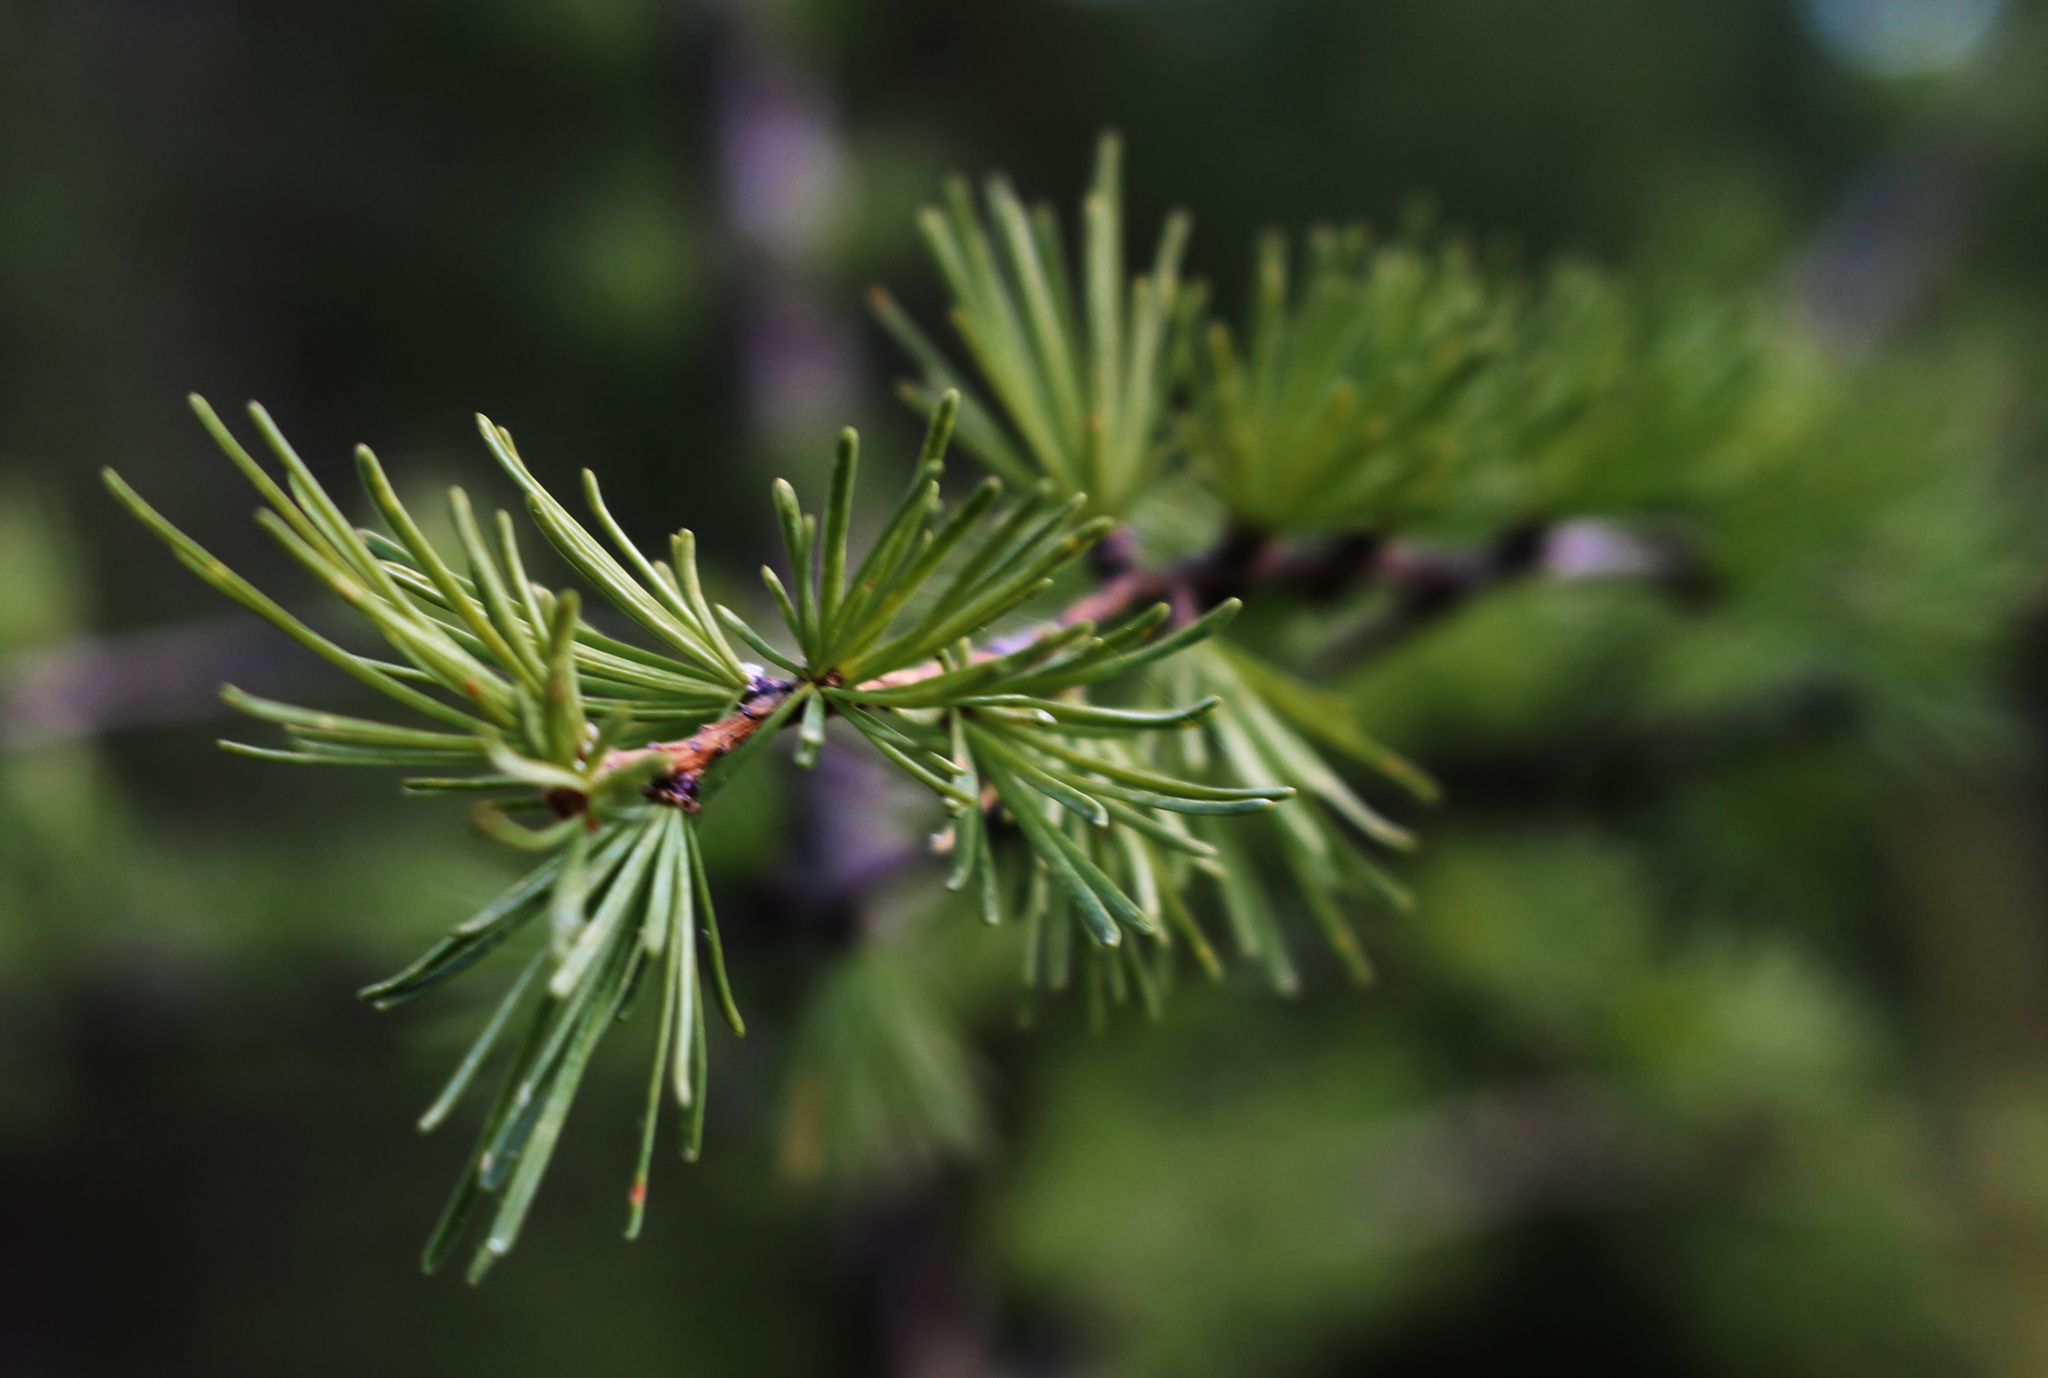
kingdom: Plantae
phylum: Tracheophyta
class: Pinopsida
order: Pinales
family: Pinaceae
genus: Larix
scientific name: Larix laricina
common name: American larch
